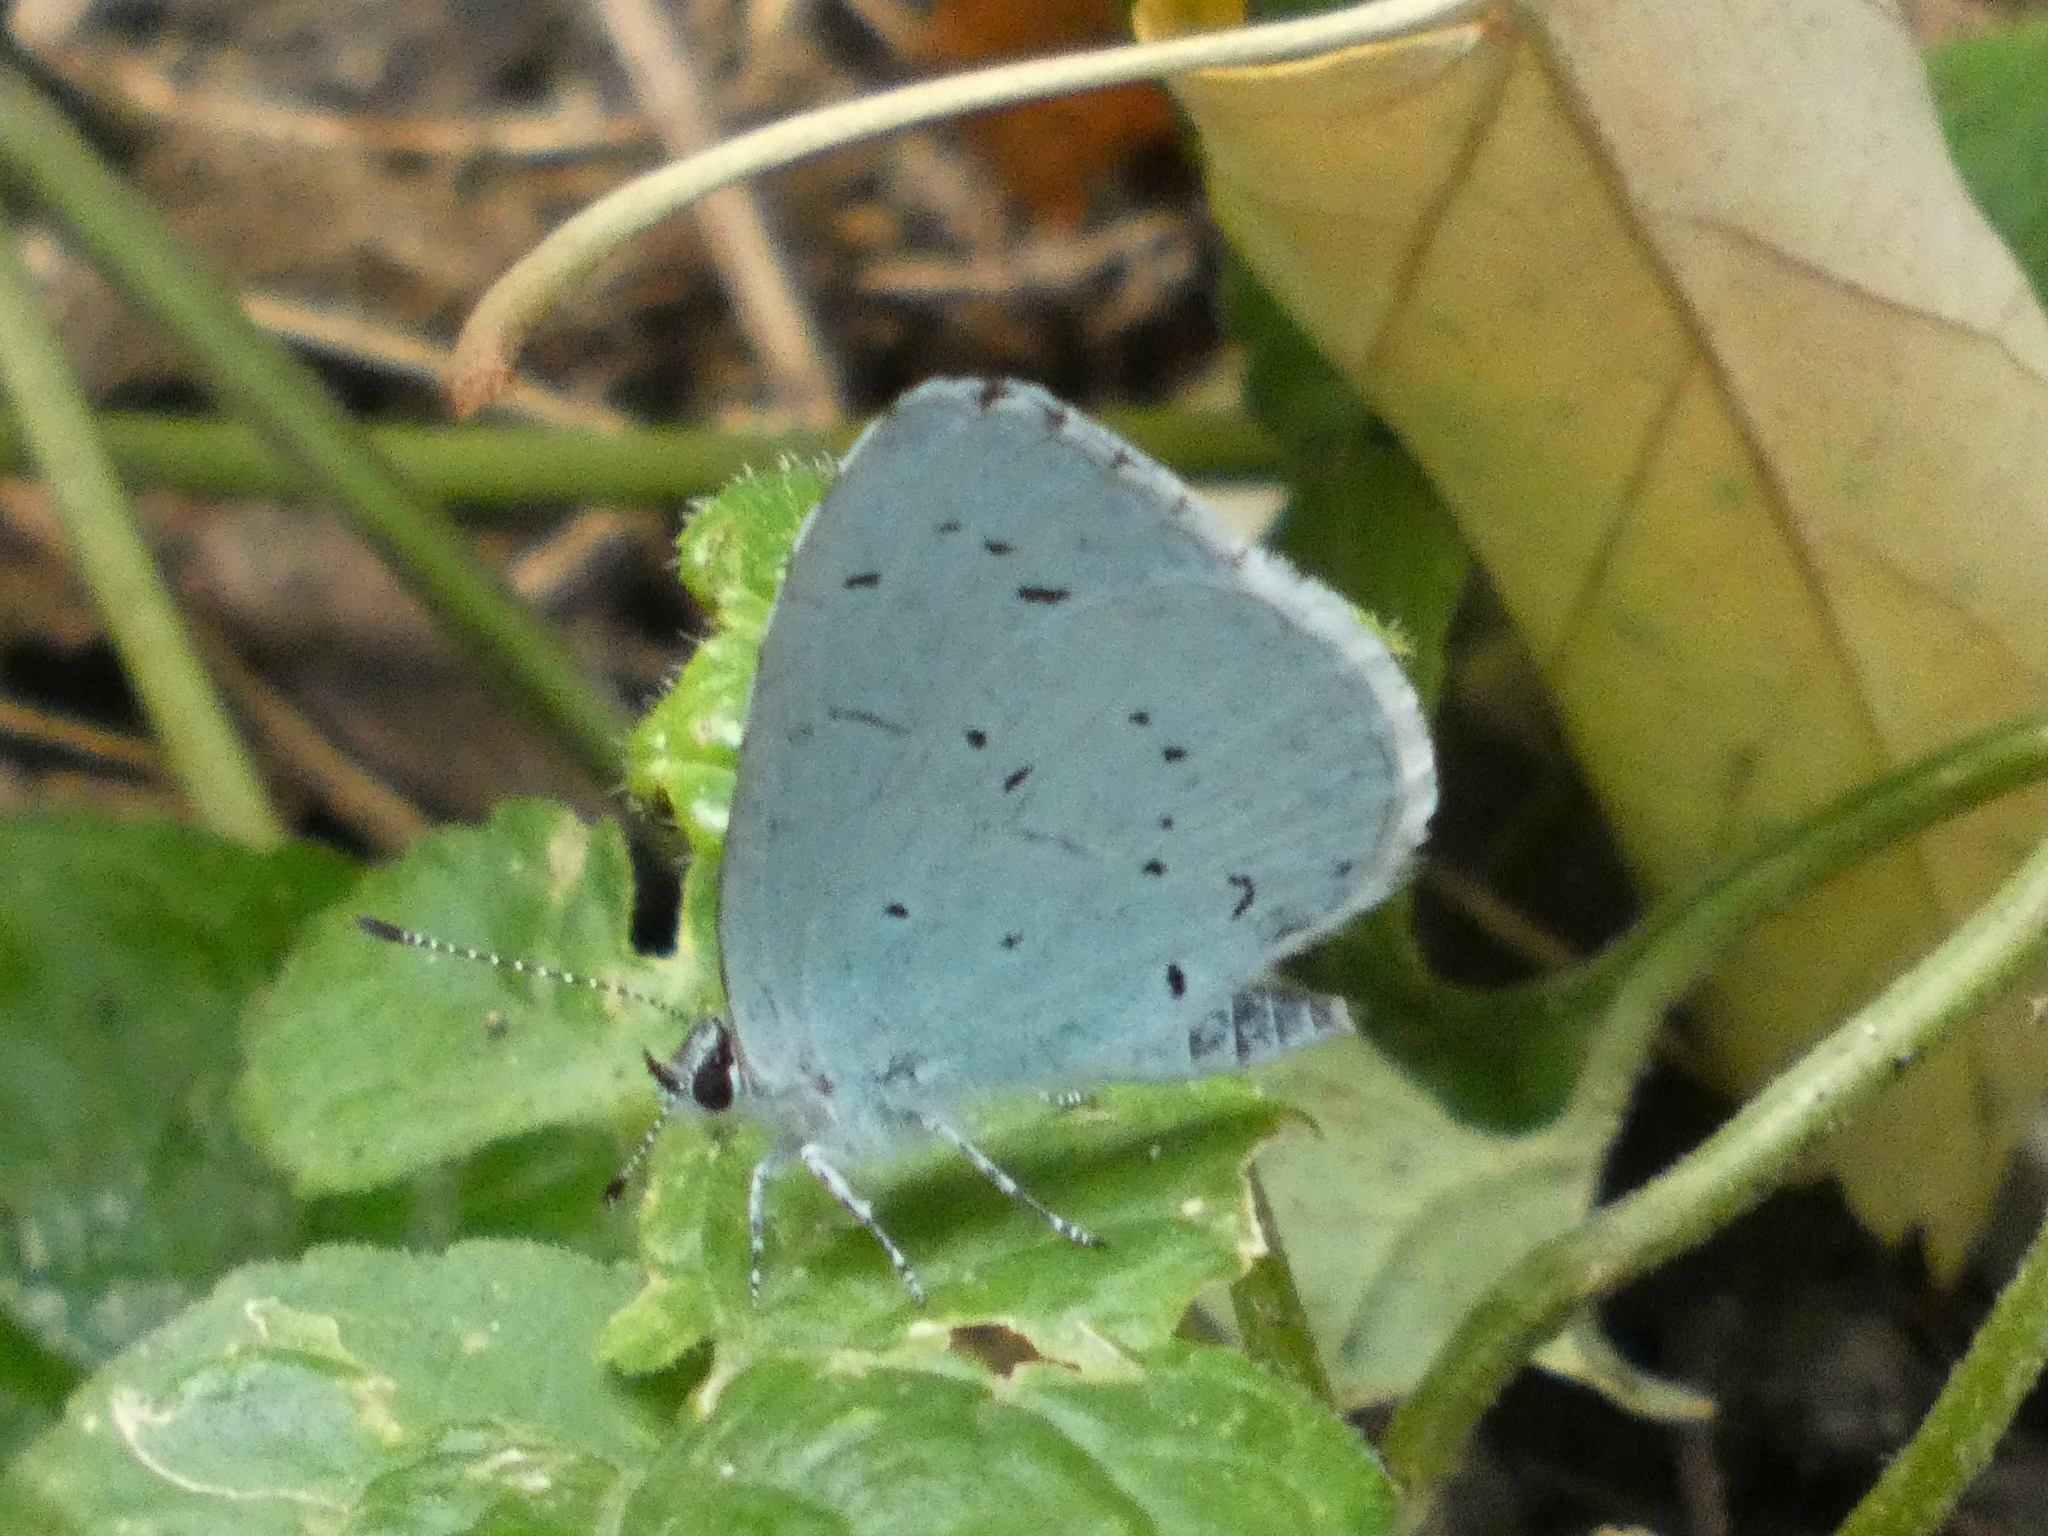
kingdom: Animalia
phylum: Arthropoda
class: Insecta
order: Lepidoptera
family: Lycaenidae
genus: Celastrina
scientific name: Celastrina argiolus
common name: Holly blue
